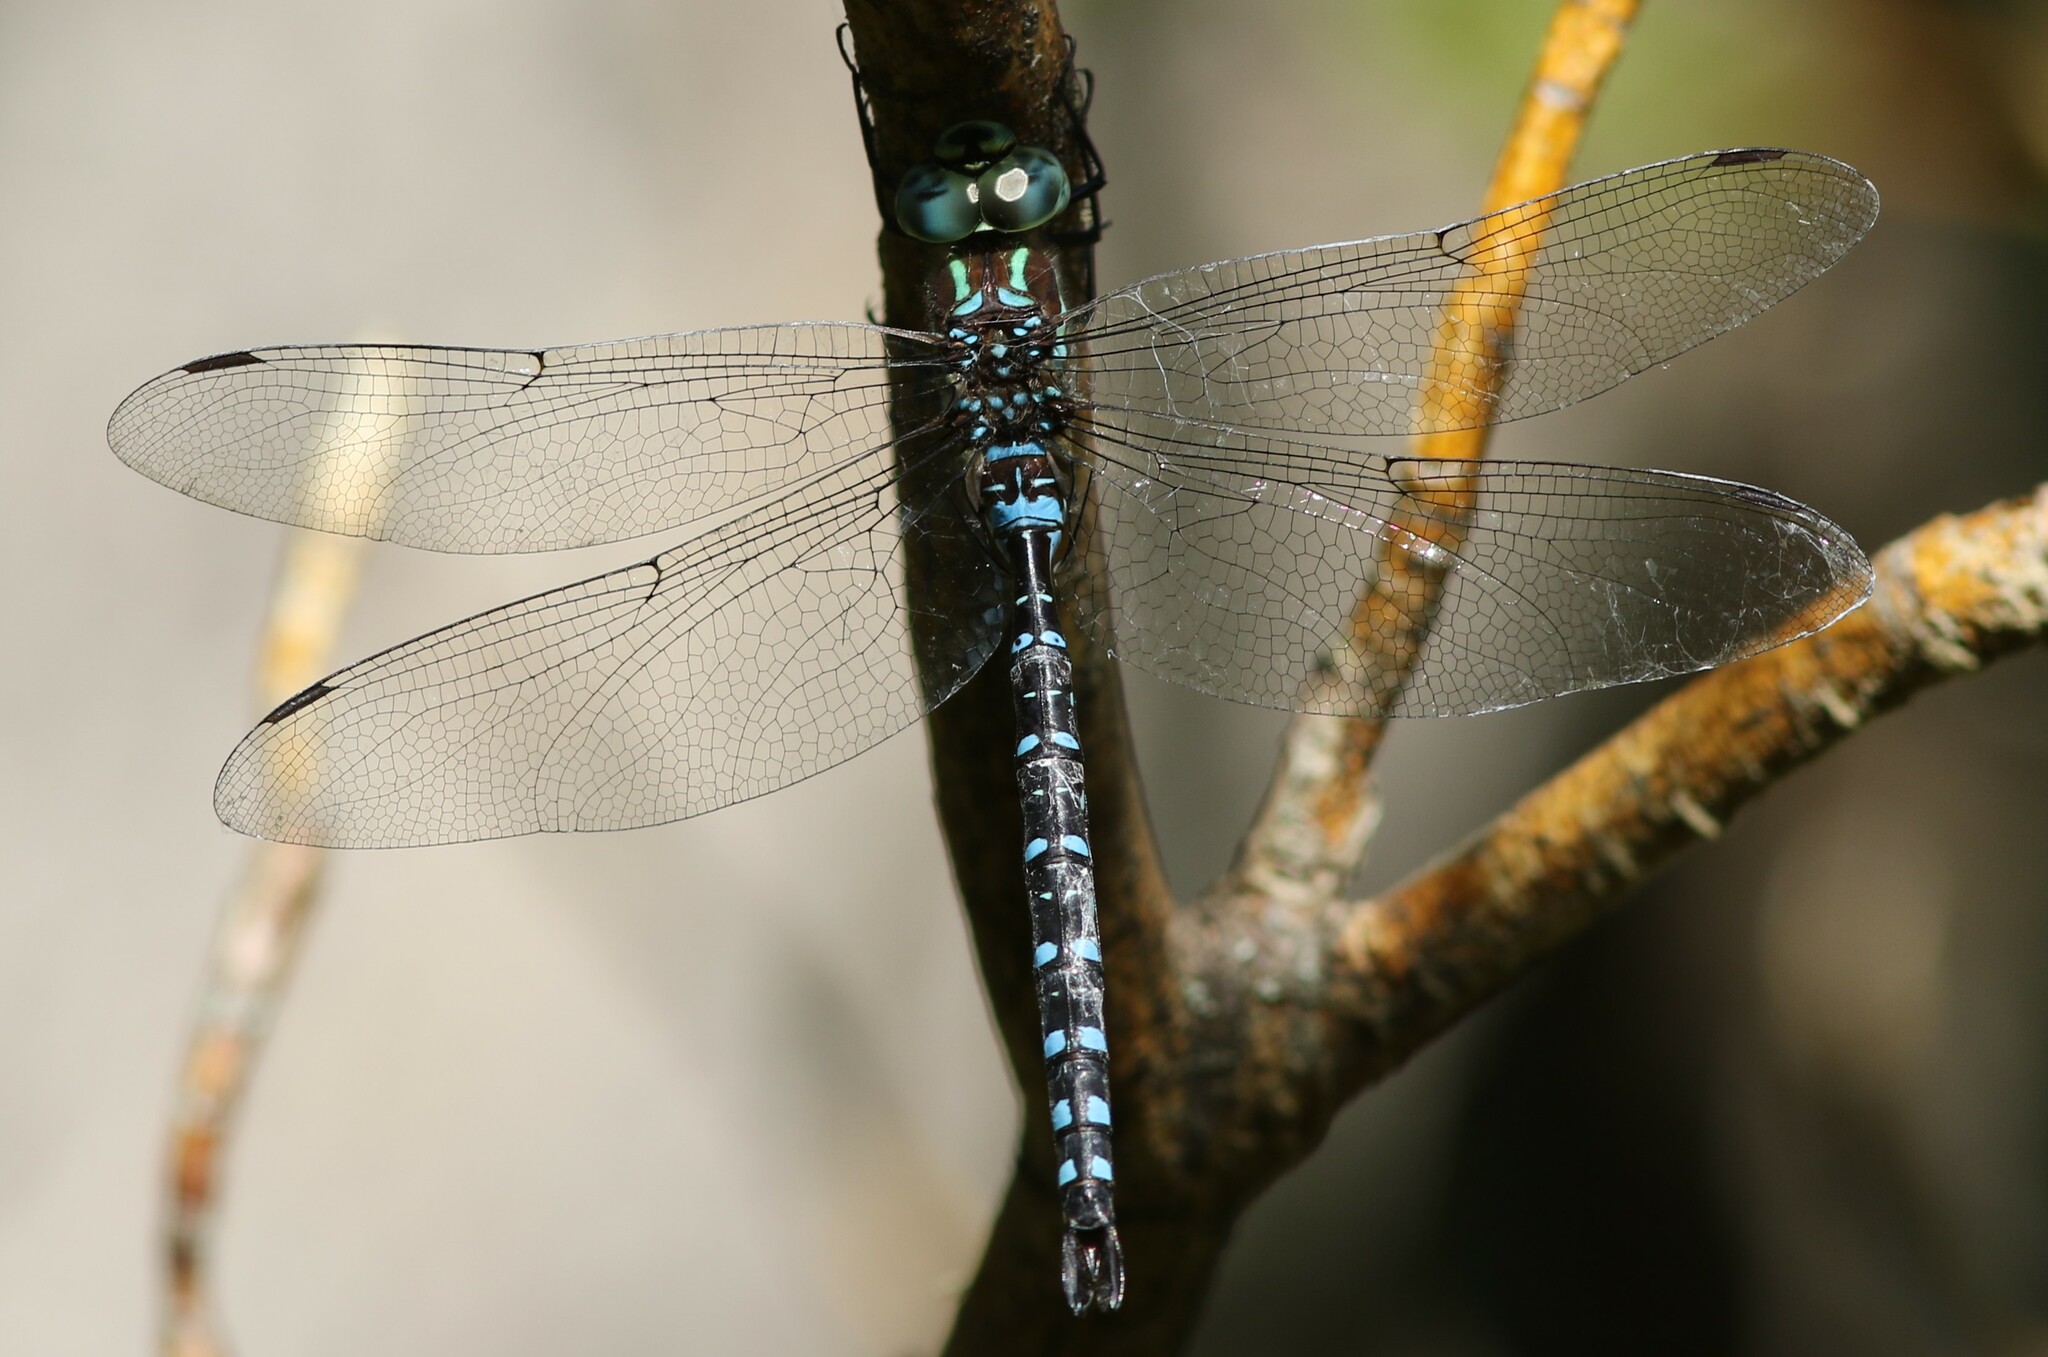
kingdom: Animalia
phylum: Arthropoda
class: Insecta
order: Odonata
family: Aeshnidae
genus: Aeshna
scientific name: Aeshna tuberculifera
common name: Aeschne à tubercules
